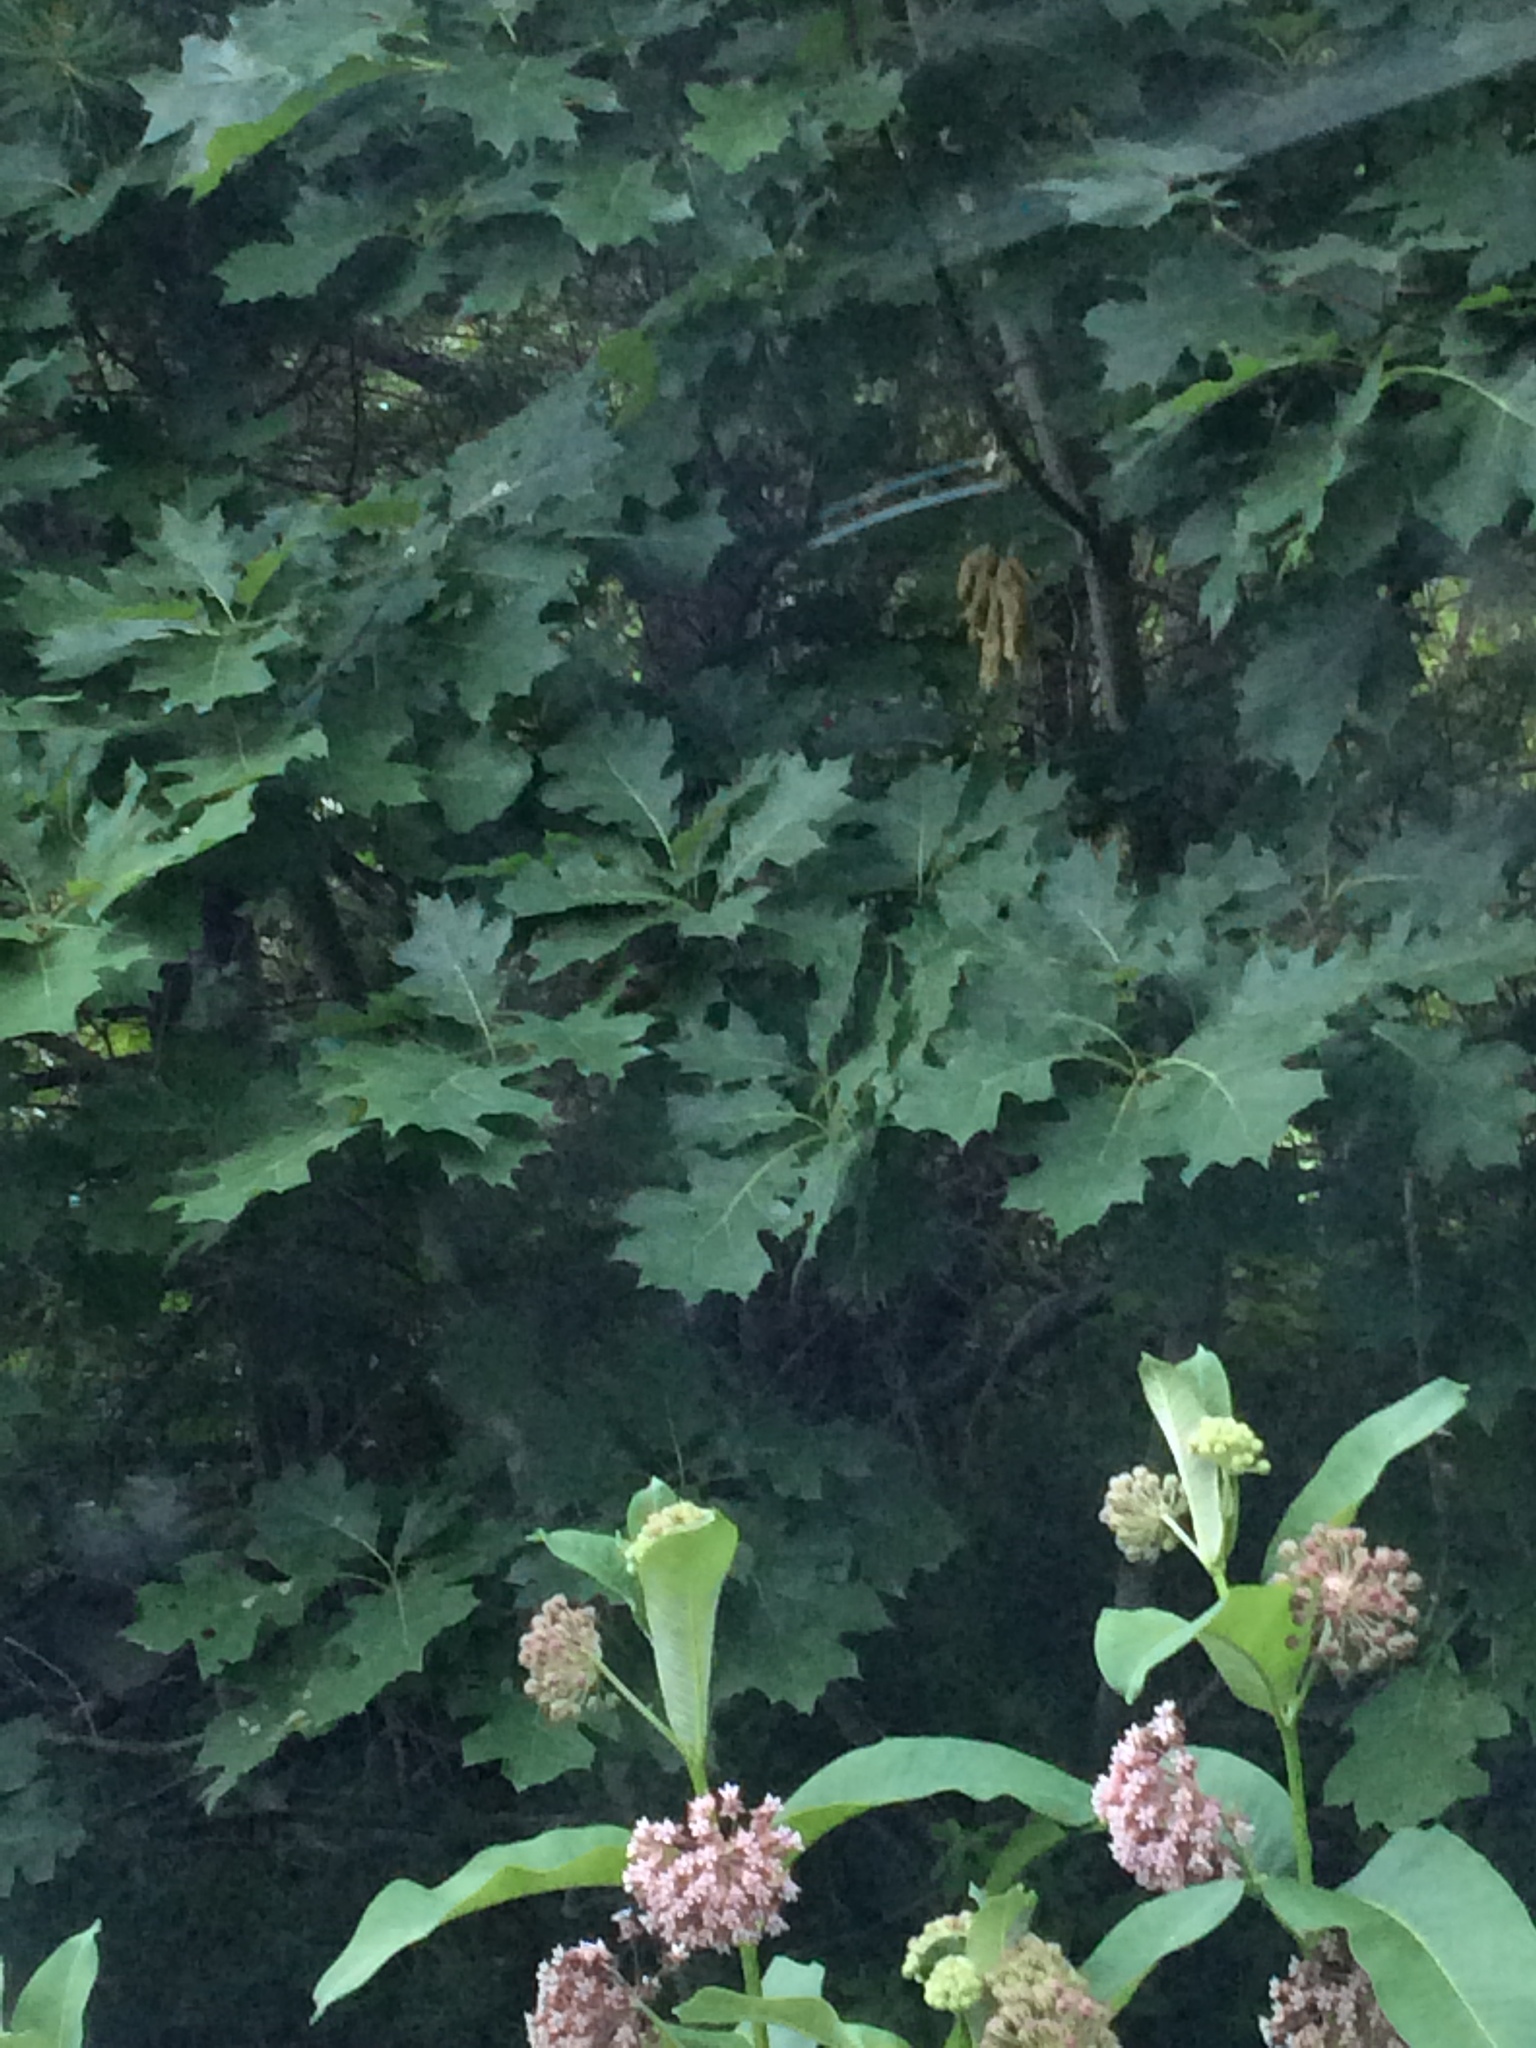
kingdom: Plantae
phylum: Tracheophyta
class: Magnoliopsida
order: Fagales
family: Fagaceae
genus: Quercus
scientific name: Quercus rubra
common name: Red oak
